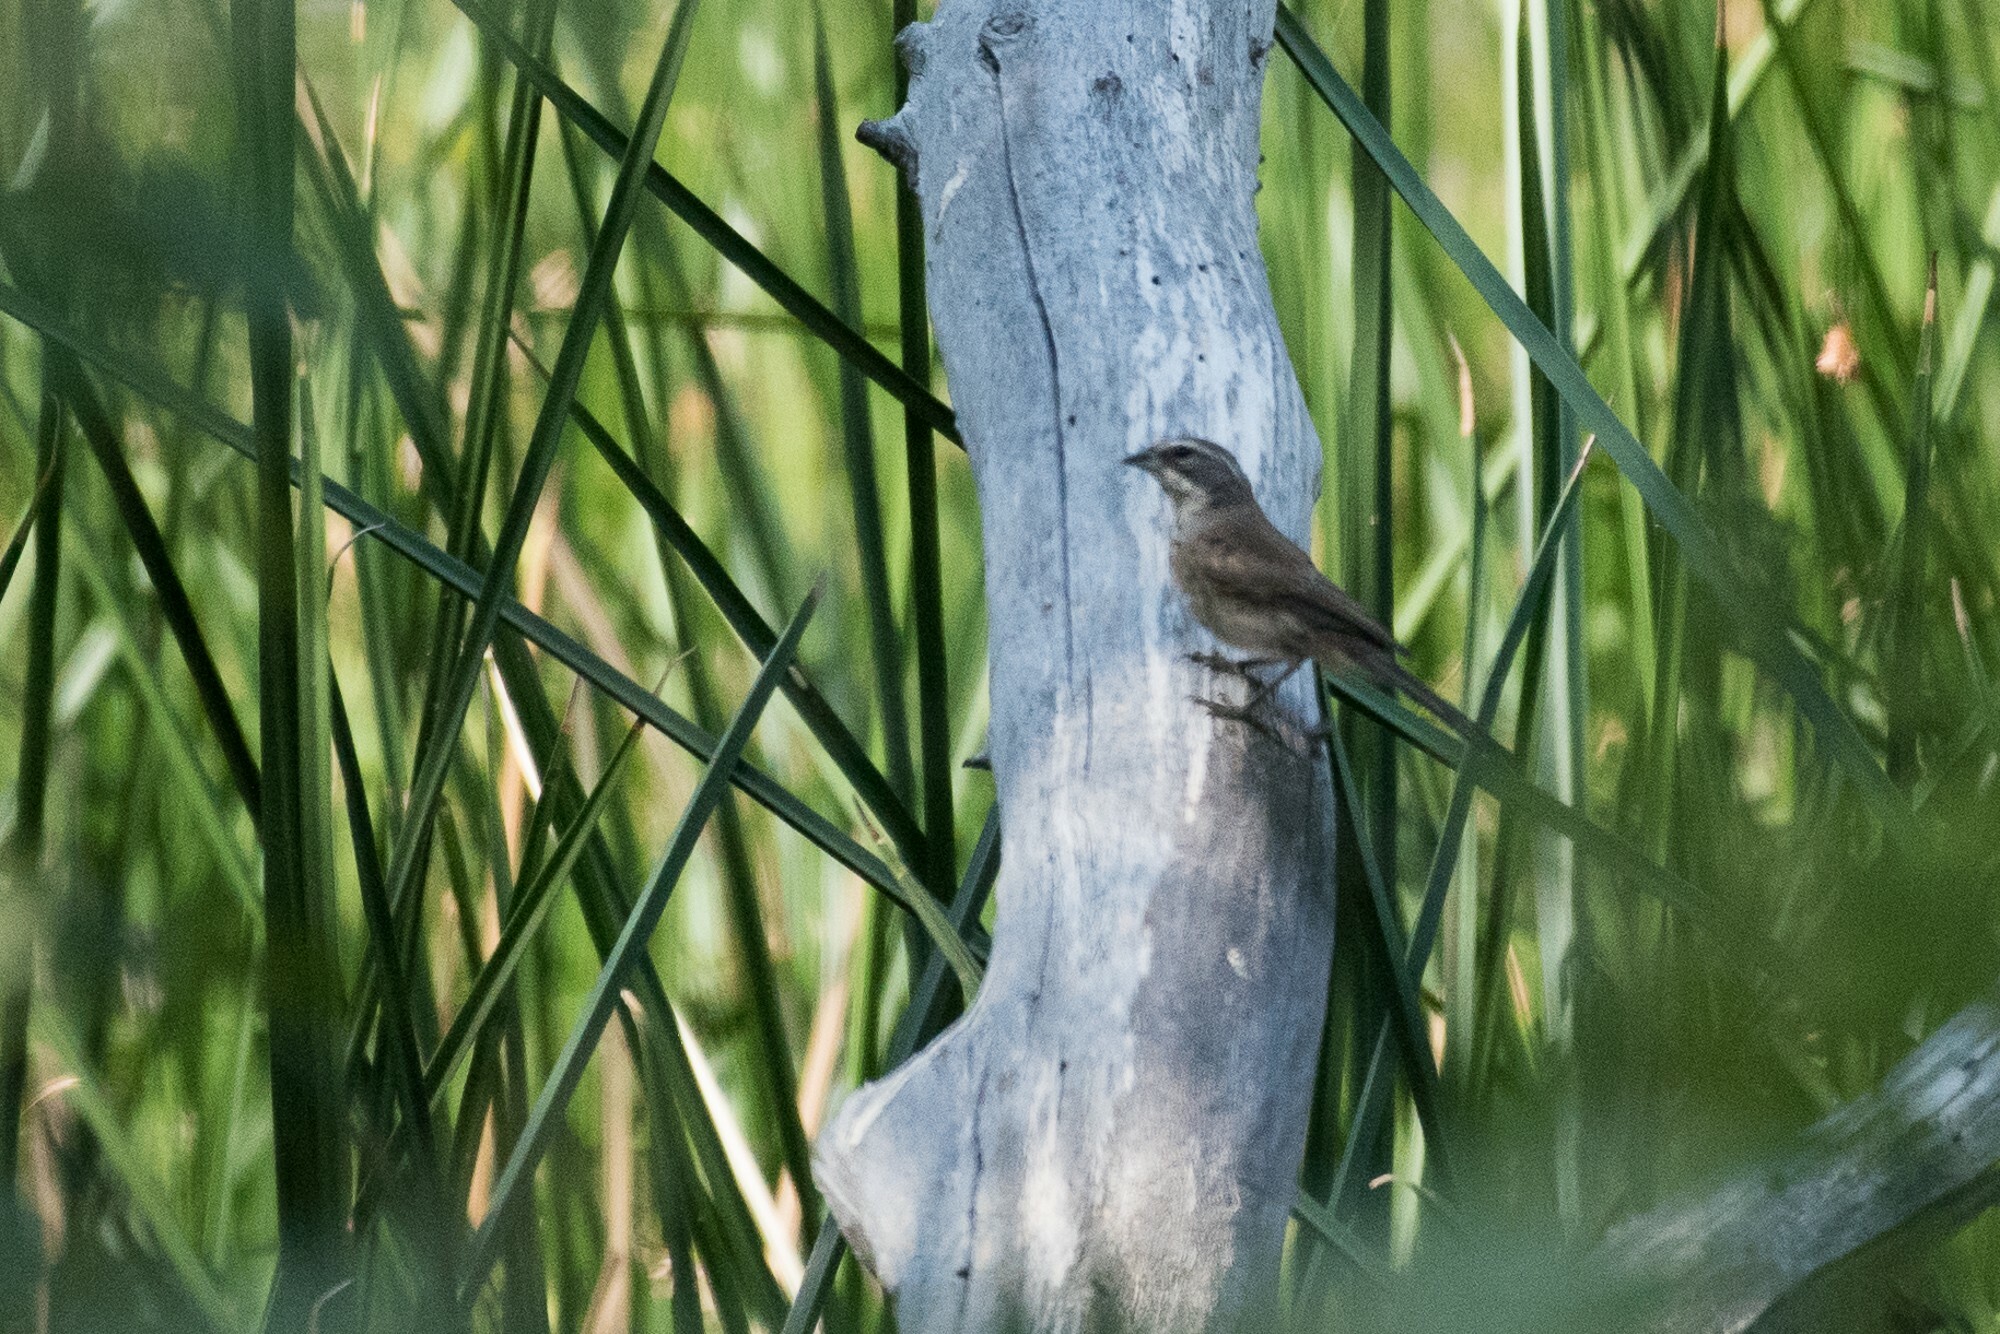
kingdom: Animalia
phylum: Chordata
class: Aves
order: Passeriformes
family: Passerellidae
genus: Amphispiza
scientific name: Amphispiza bilineata
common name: Black-throated sparrow
